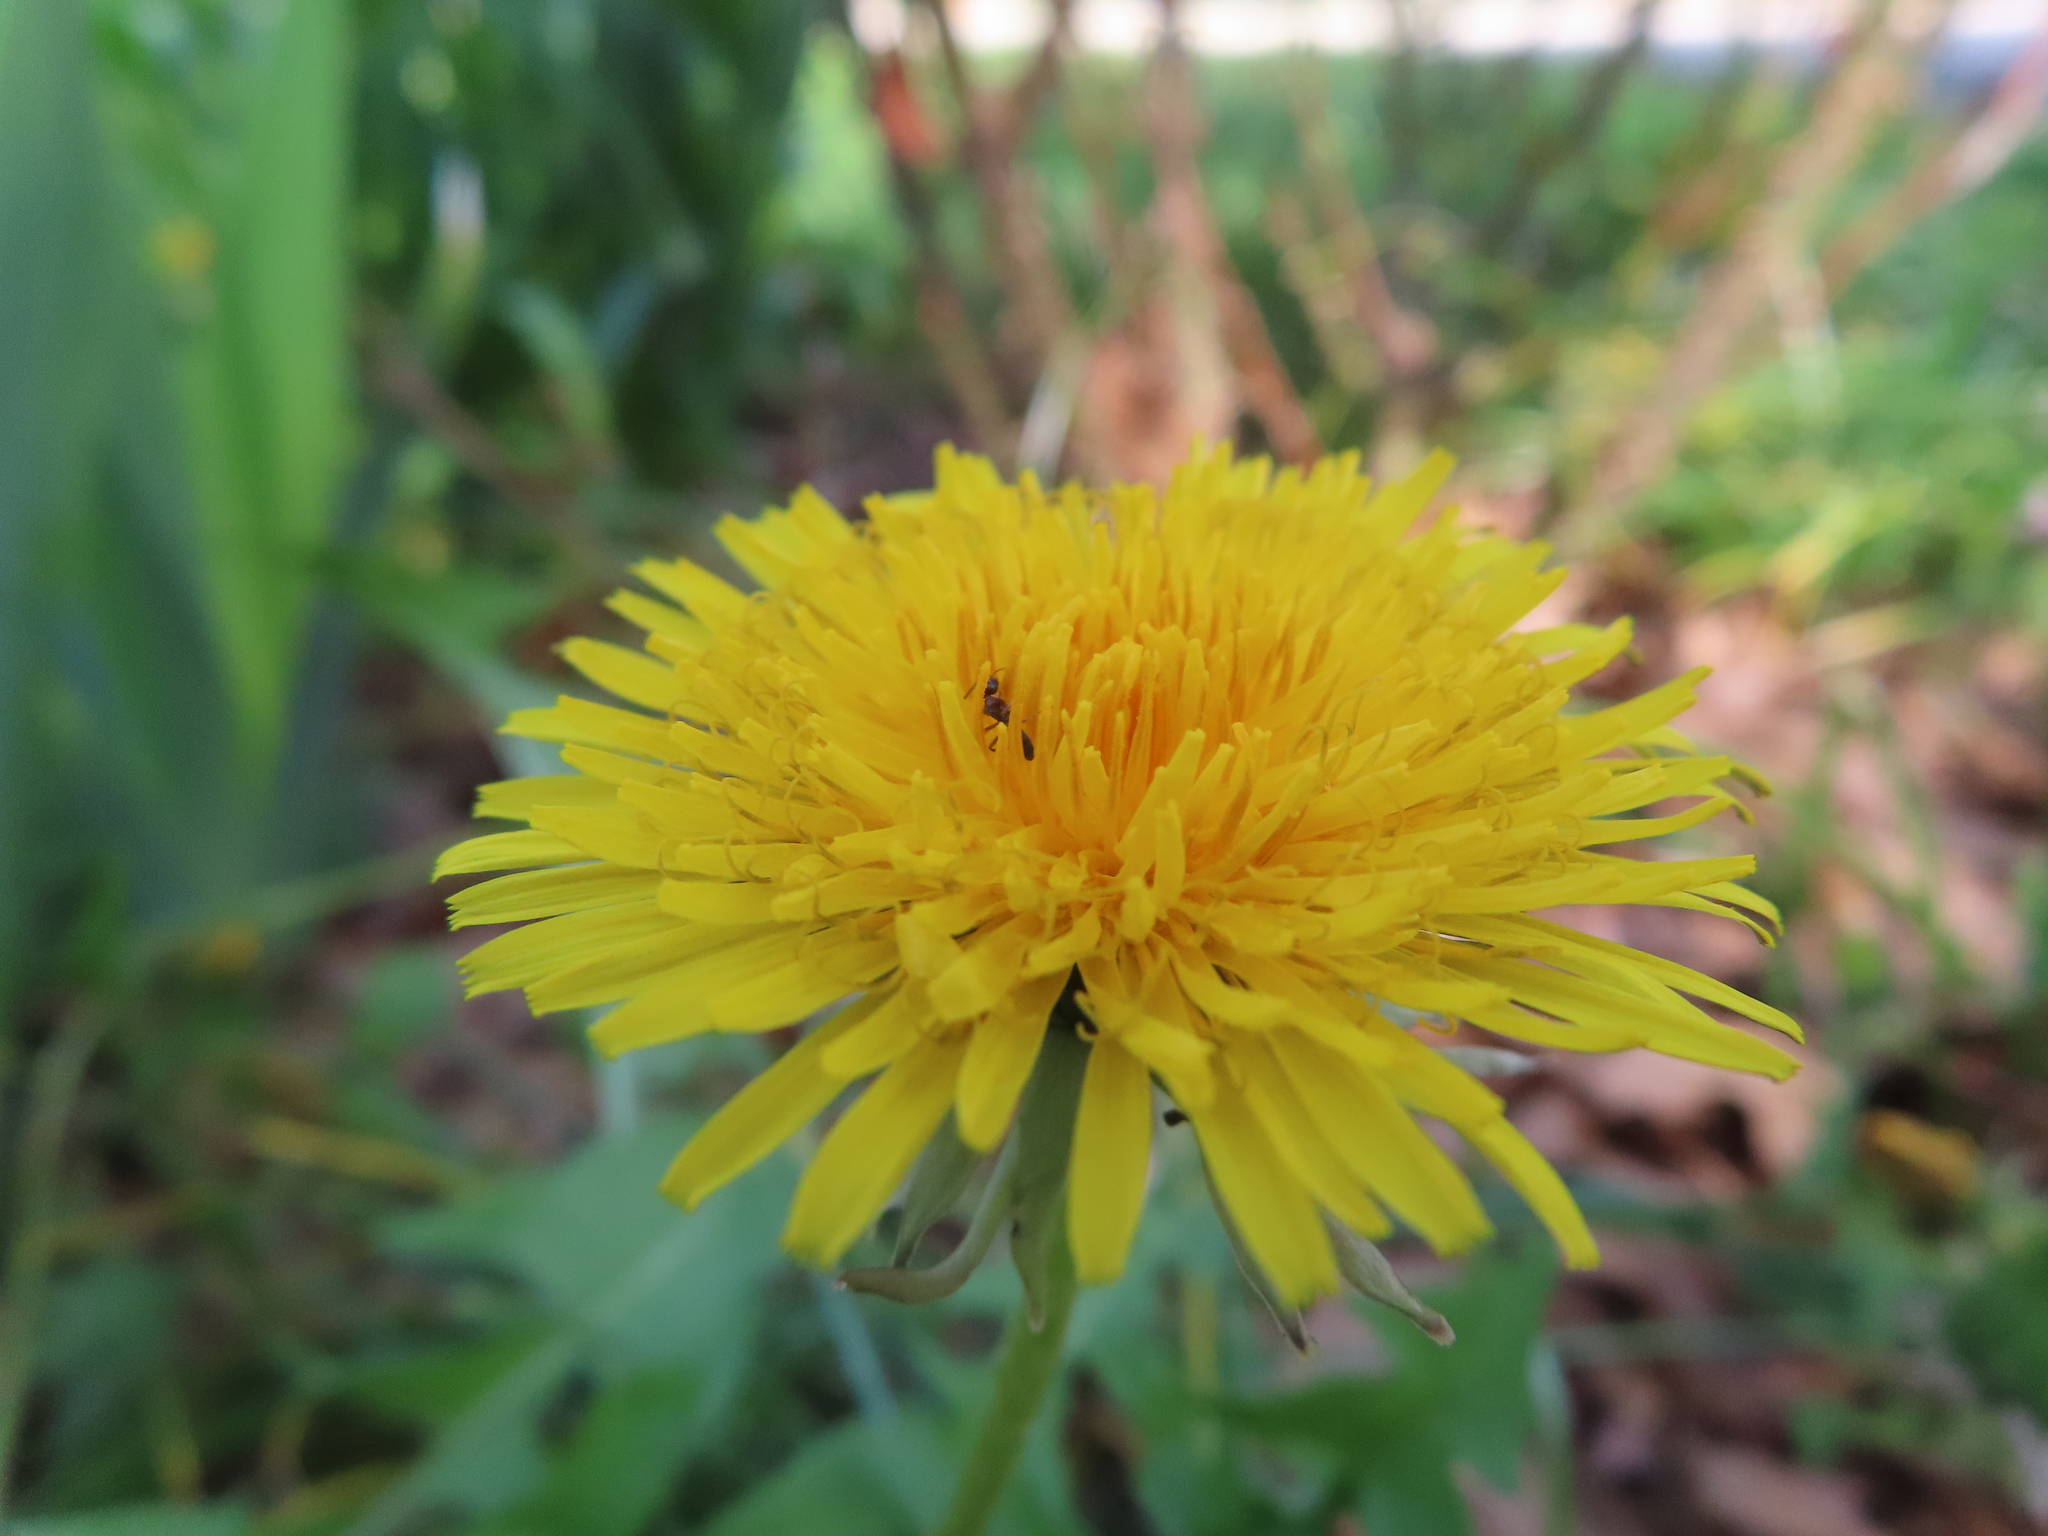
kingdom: Plantae
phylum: Tracheophyta
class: Magnoliopsida
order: Asterales
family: Asteraceae
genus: Taraxacum
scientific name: Taraxacum
